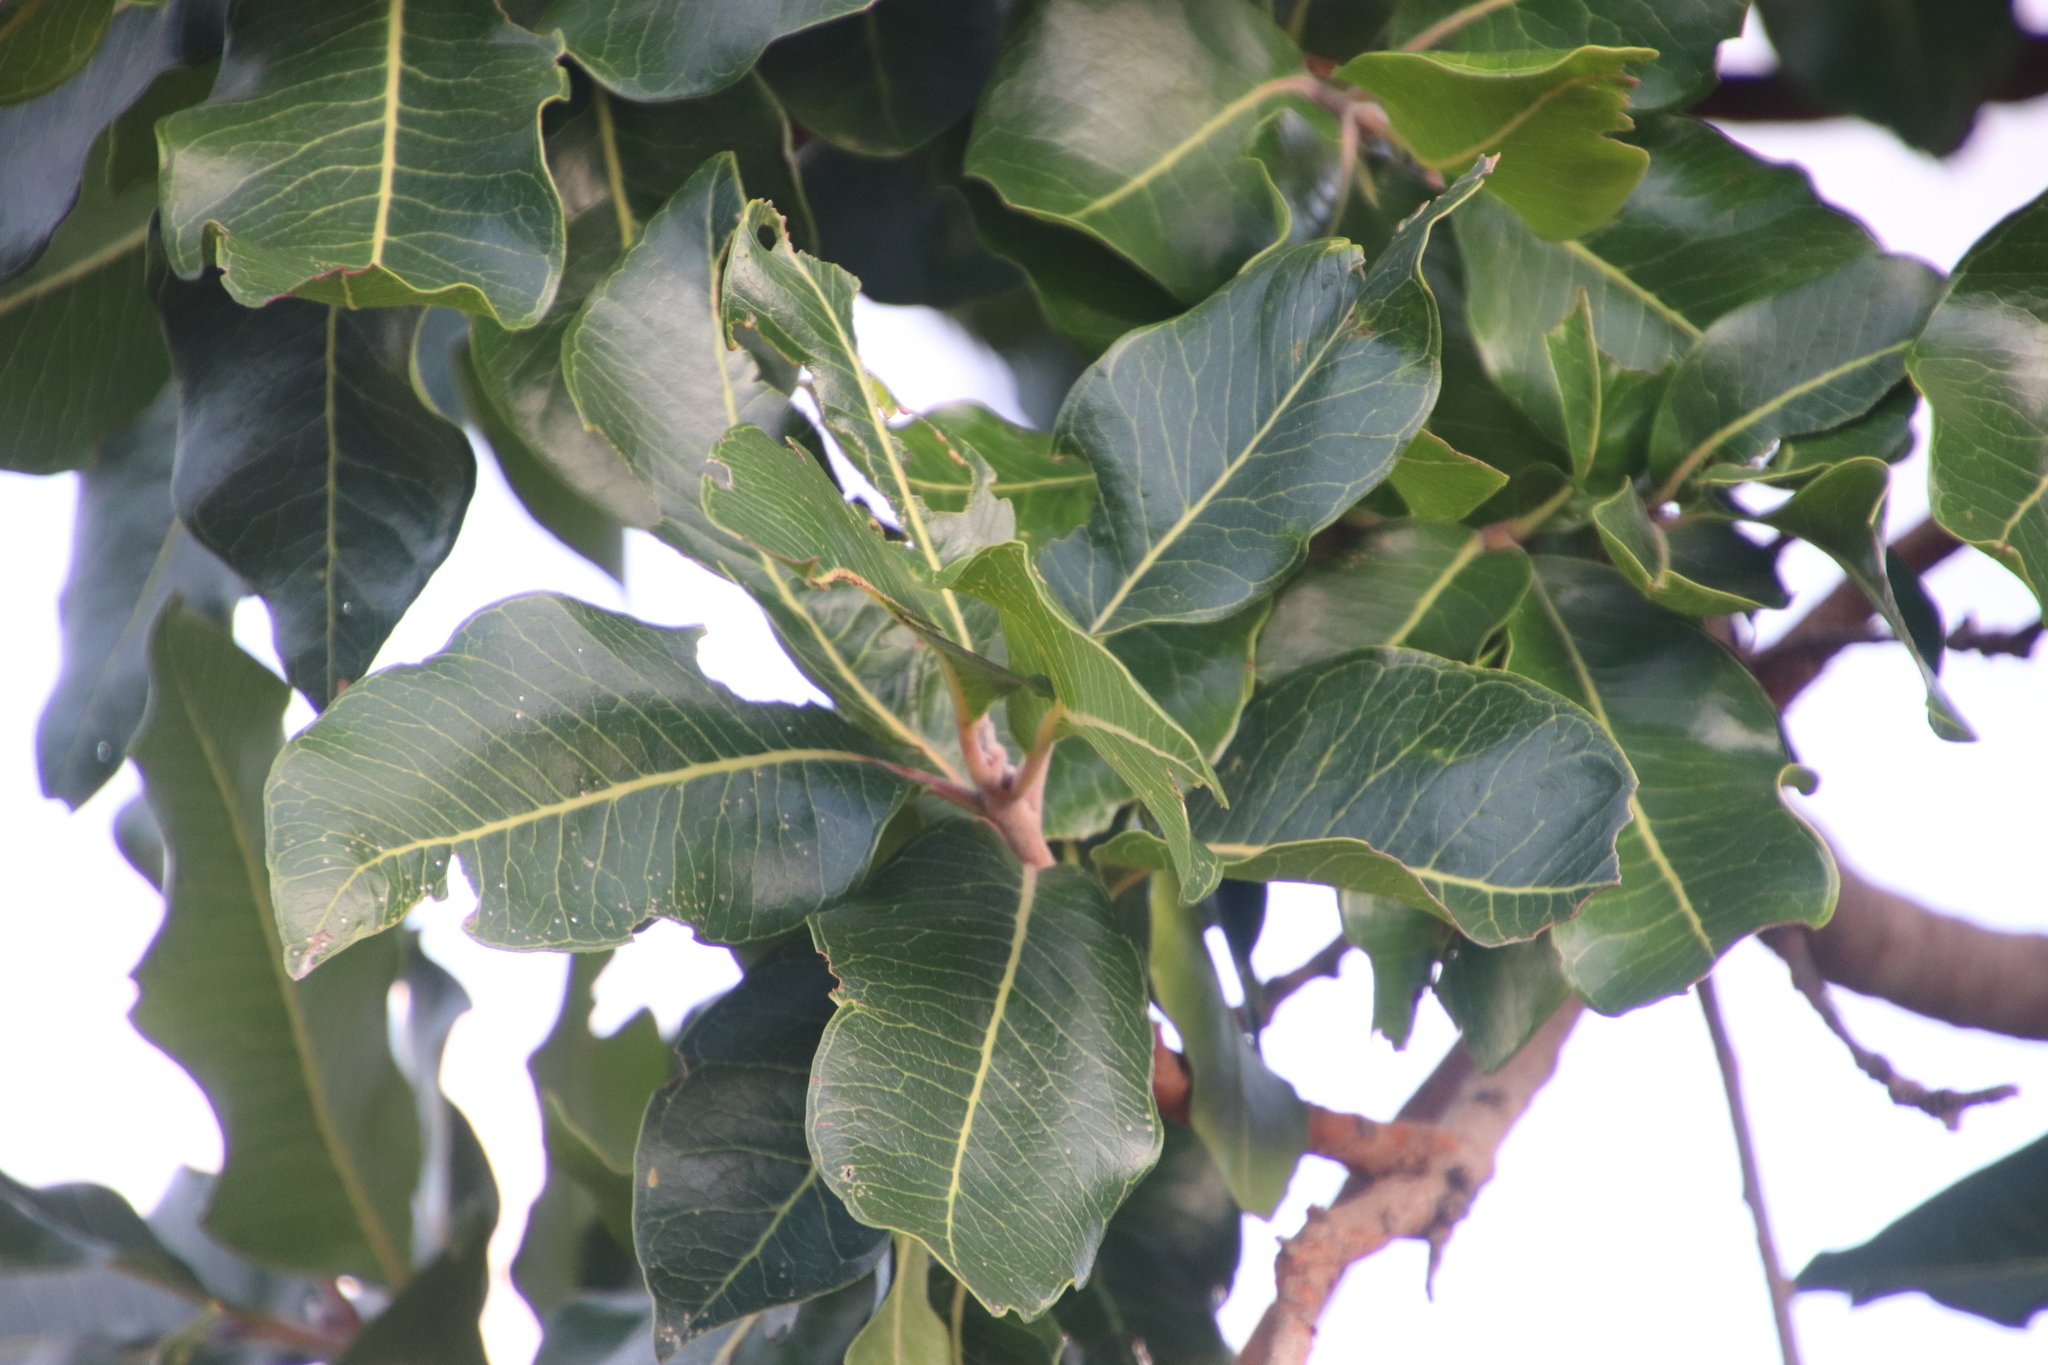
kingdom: Plantae
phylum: Tracheophyta
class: Magnoliopsida
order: Proteales
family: Proteaceae
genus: Faurea
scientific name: Faurea rochetiana
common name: Broad-leaved beech
